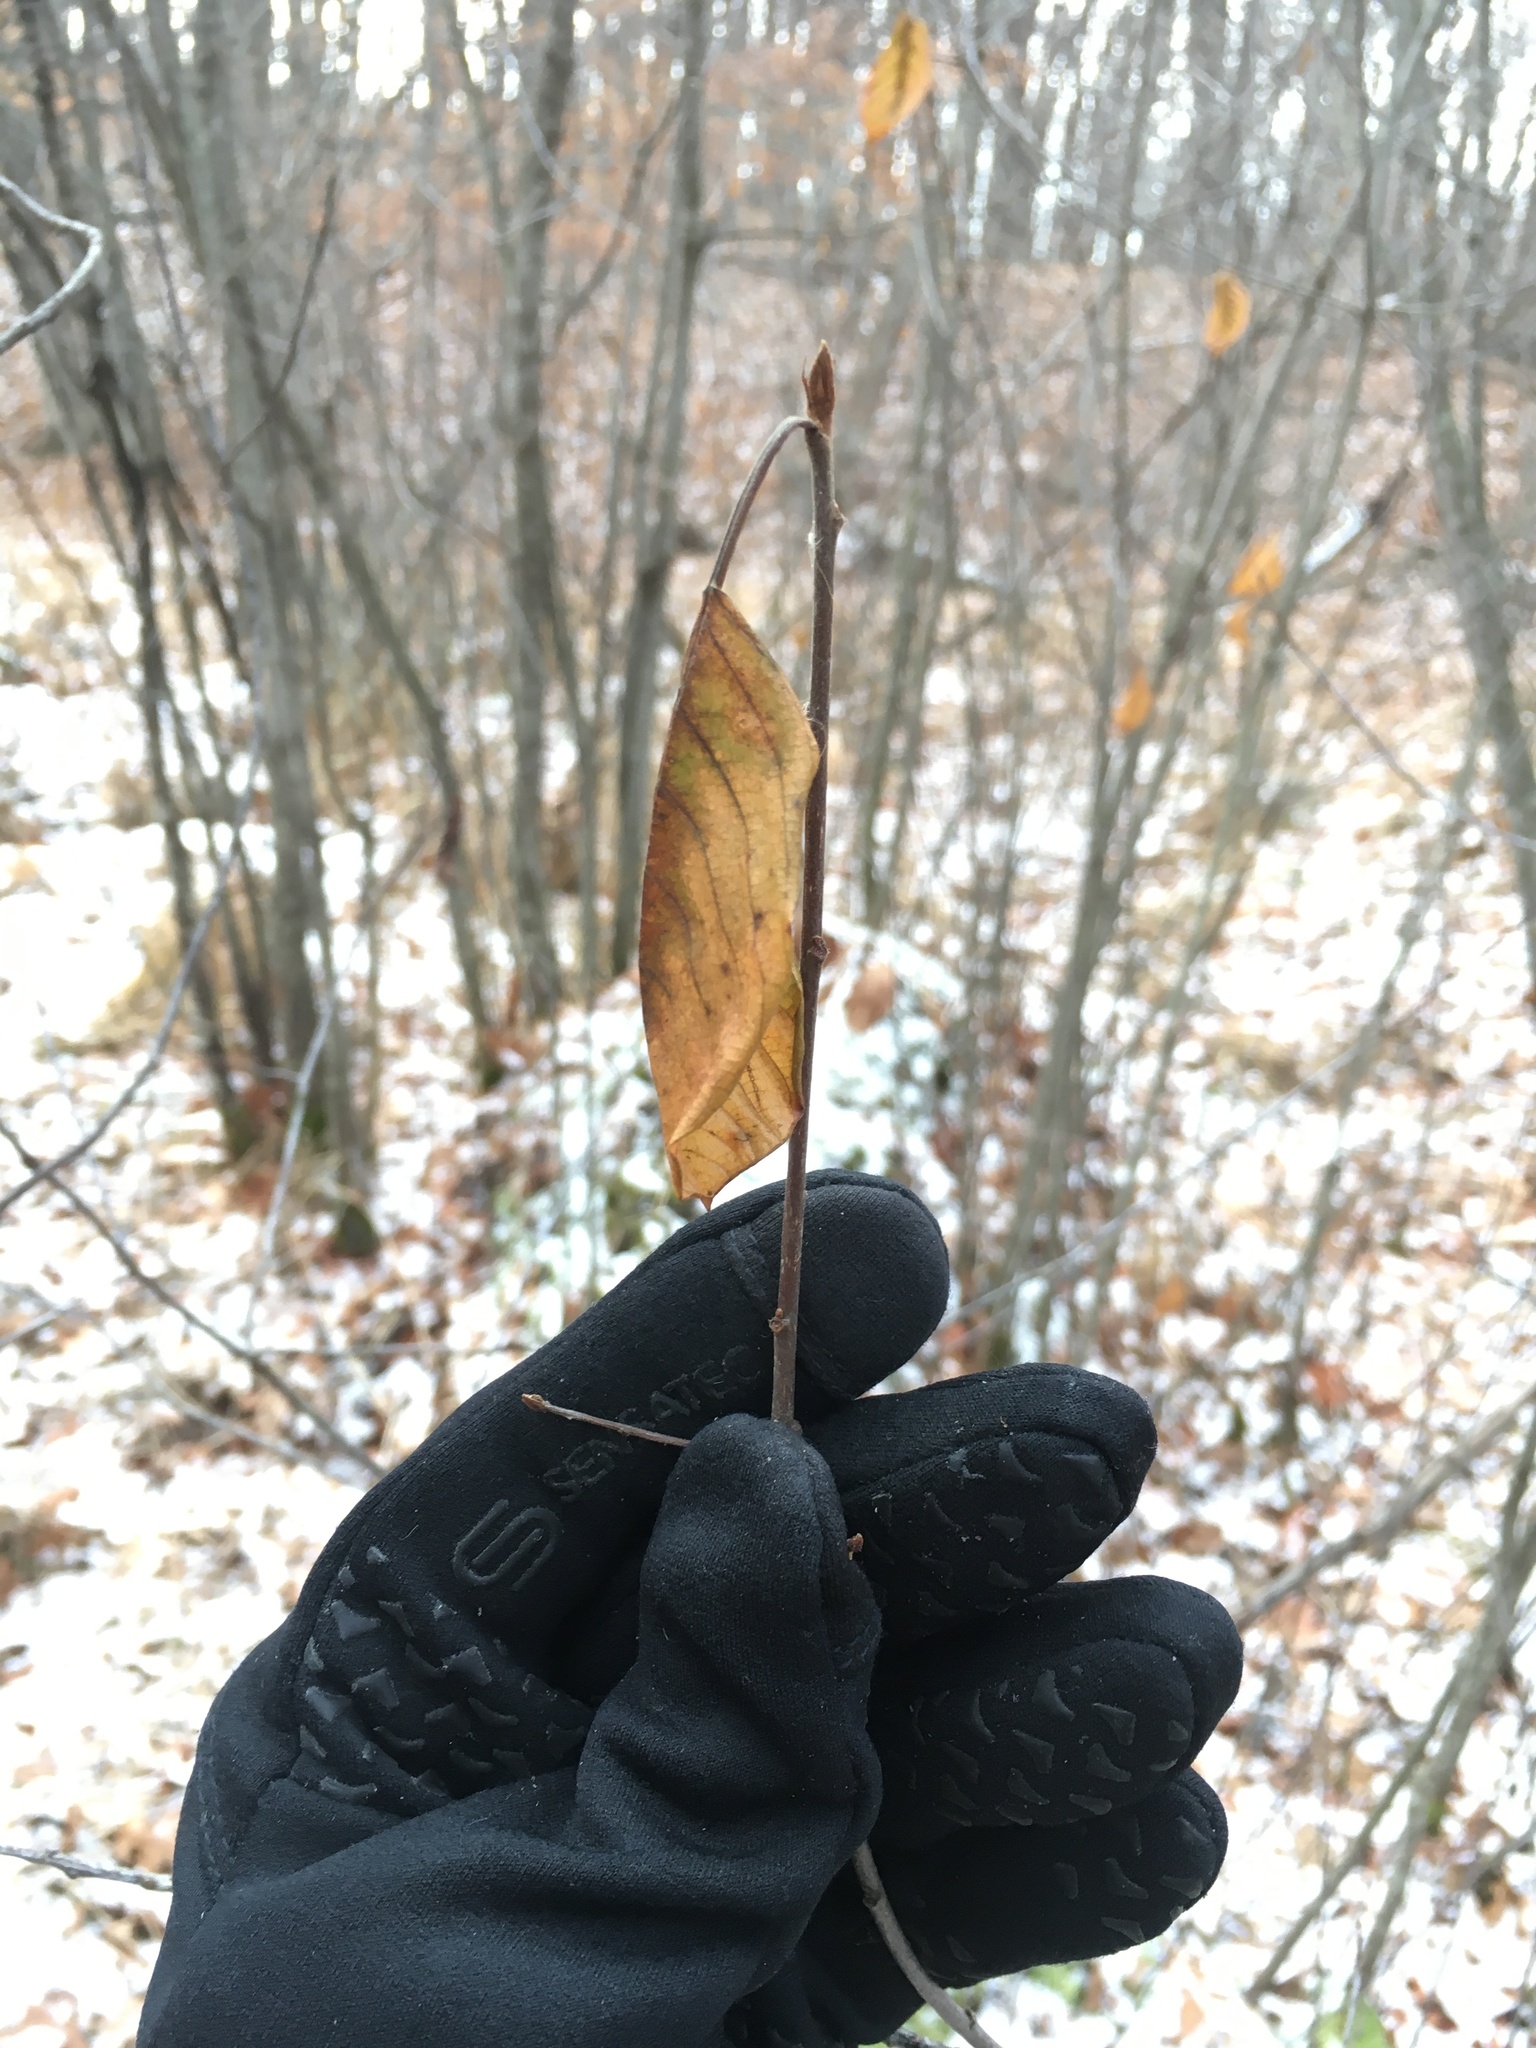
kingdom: Plantae
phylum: Tracheophyta
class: Magnoliopsida
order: Rosales
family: Rhamnaceae
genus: Frangula
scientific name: Frangula alnus
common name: Alder buckthorn
